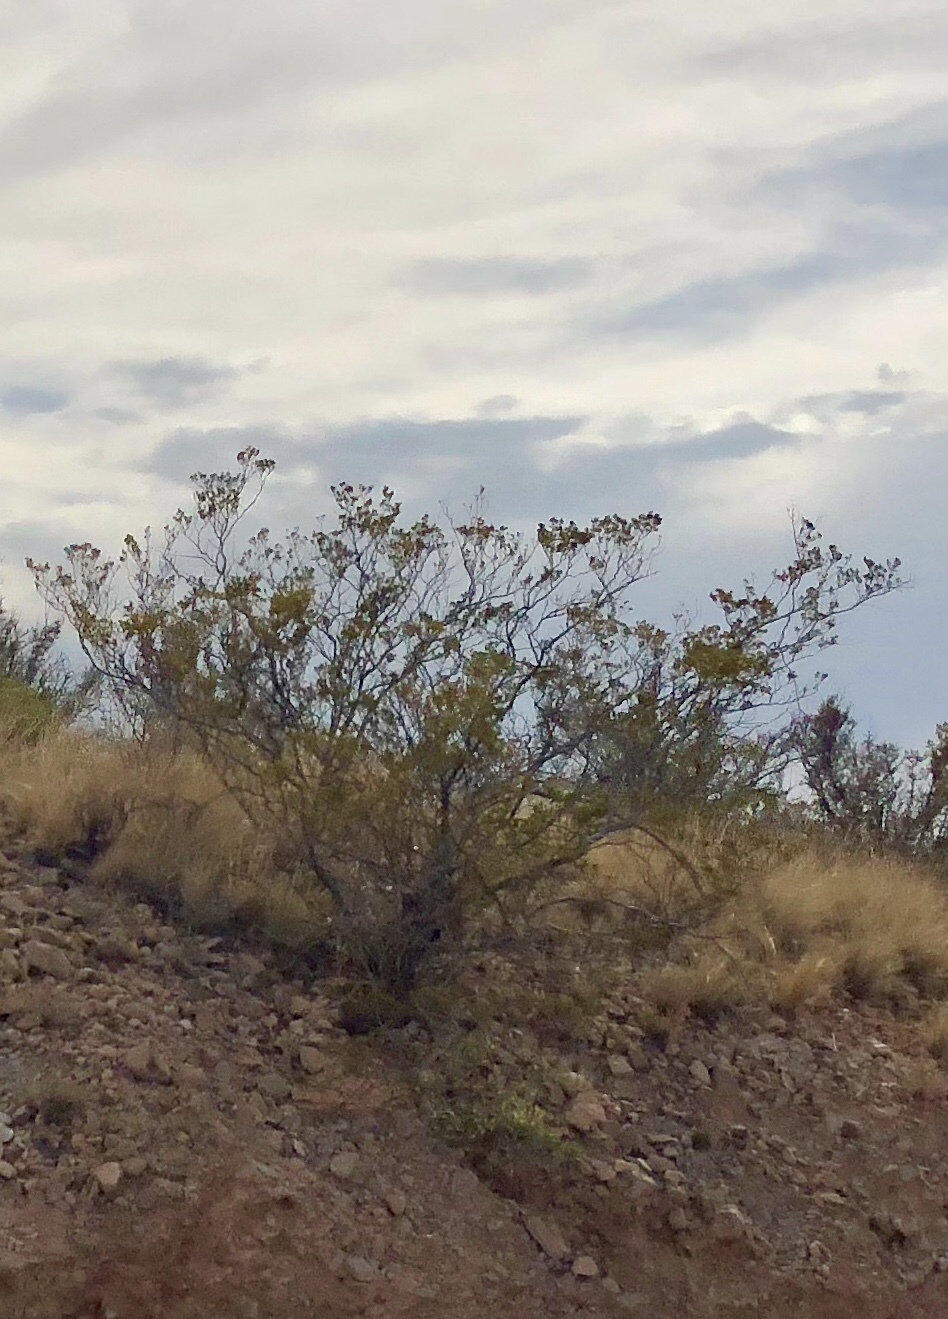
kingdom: Plantae
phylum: Tracheophyta
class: Magnoliopsida
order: Zygophyllales
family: Zygophyllaceae
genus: Larrea
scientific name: Larrea tridentata
